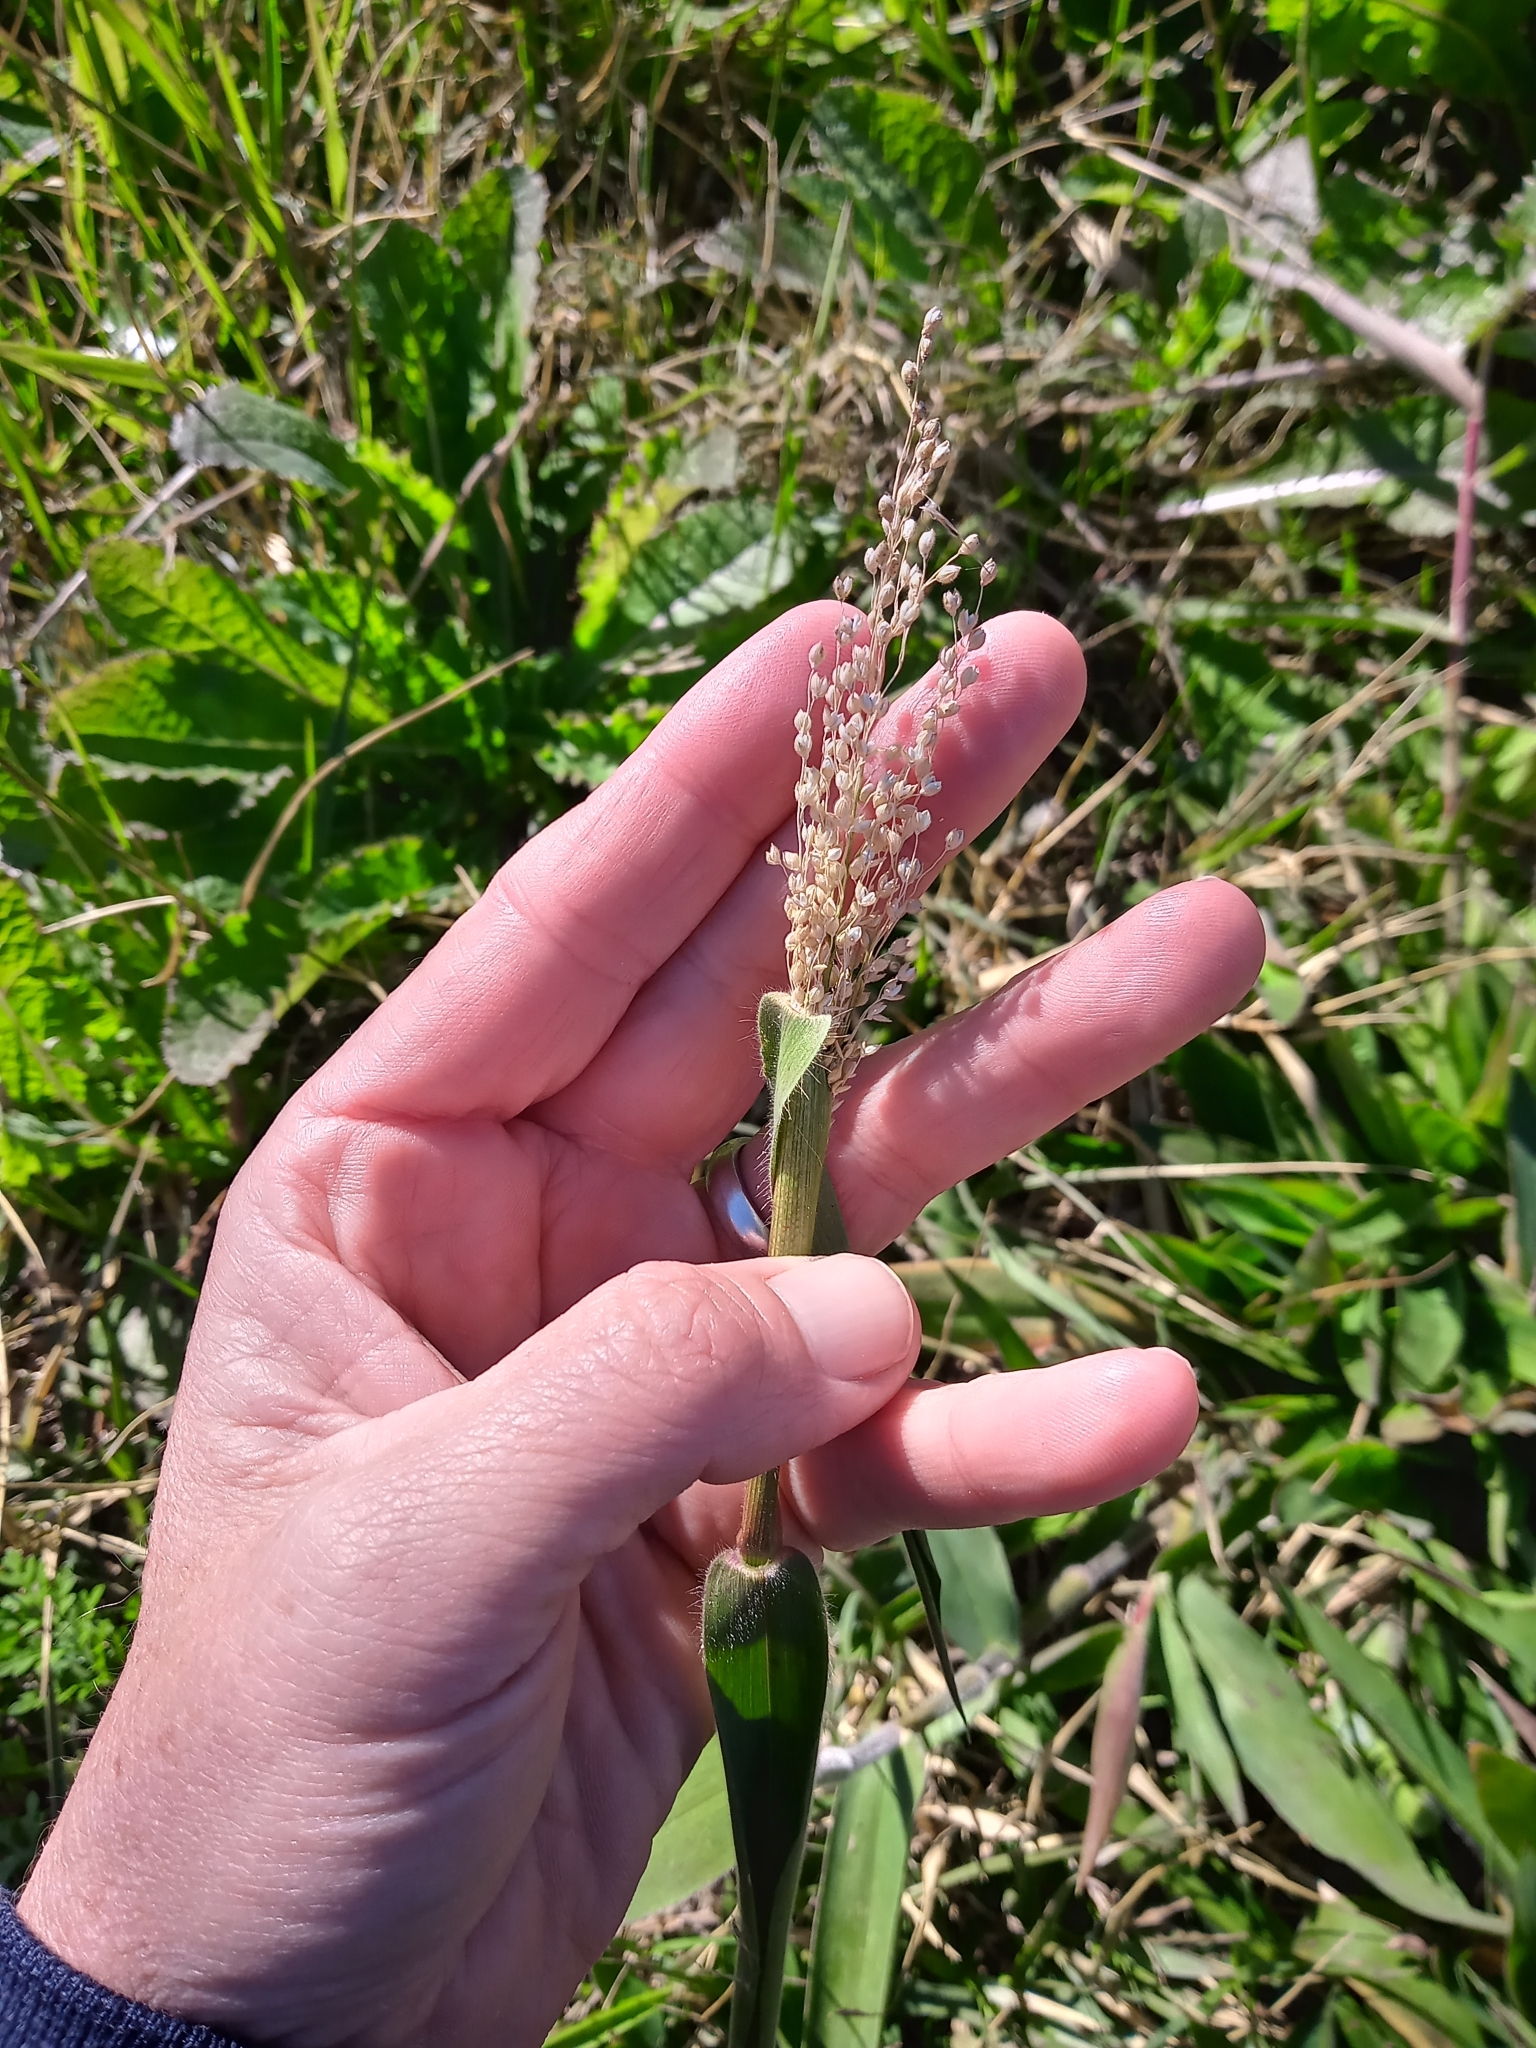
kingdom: Plantae
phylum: Tracheophyta
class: Liliopsida
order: Poales
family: Poaceae
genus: Dichanthelium
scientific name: Dichanthelium scoparium
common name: Velvety panic grass
